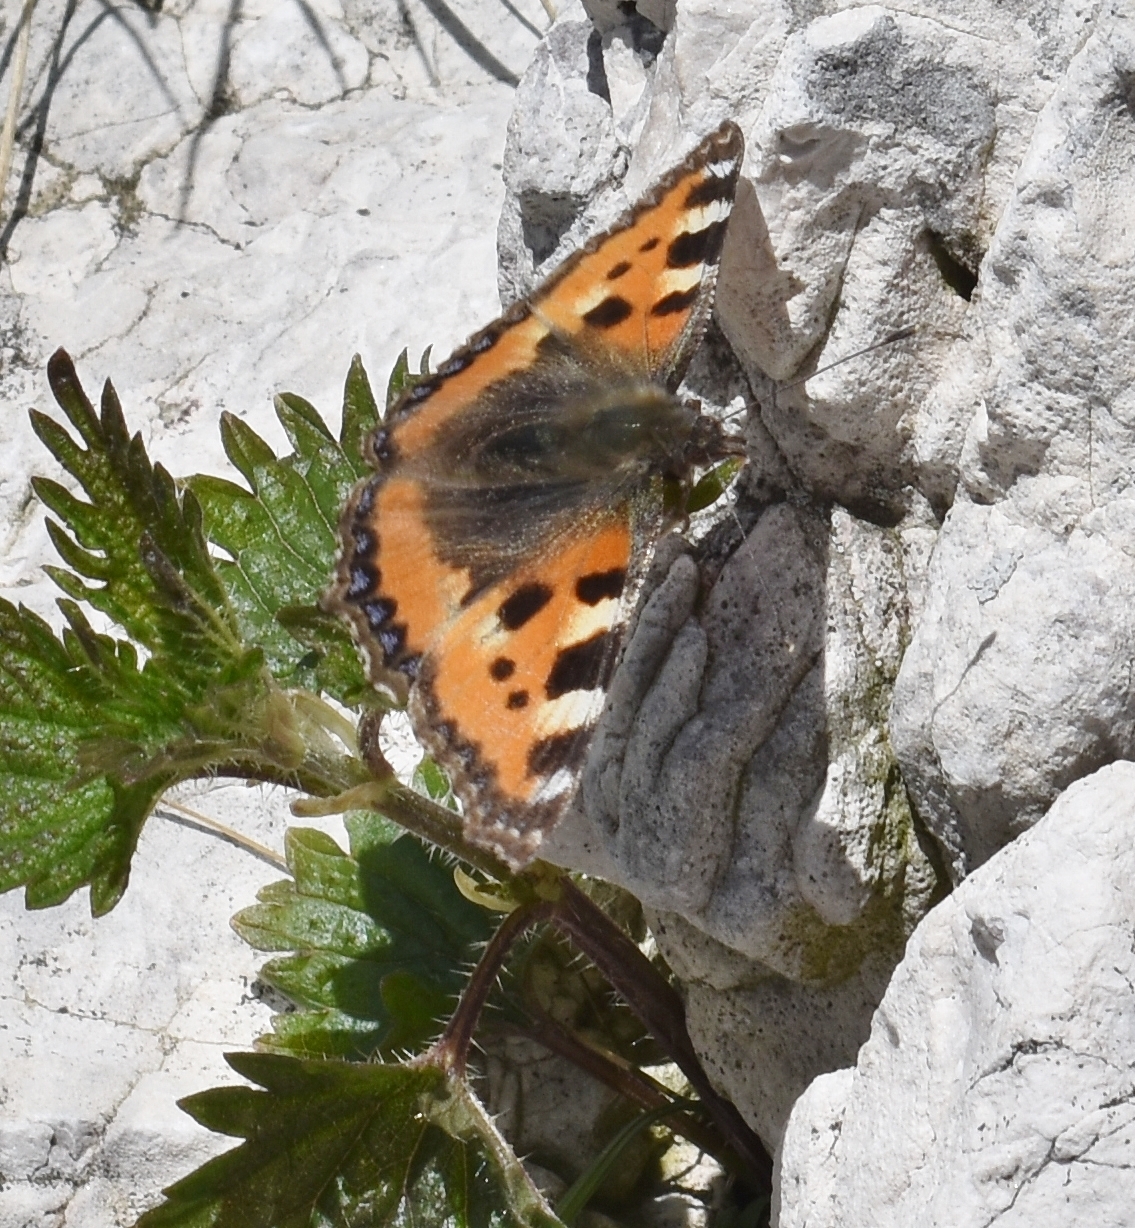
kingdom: Animalia
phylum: Arthropoda
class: Insecta
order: Lepidoptera
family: Nymphalidae
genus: Aglais
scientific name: Aglais urticae
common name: Small tortoiseshell
